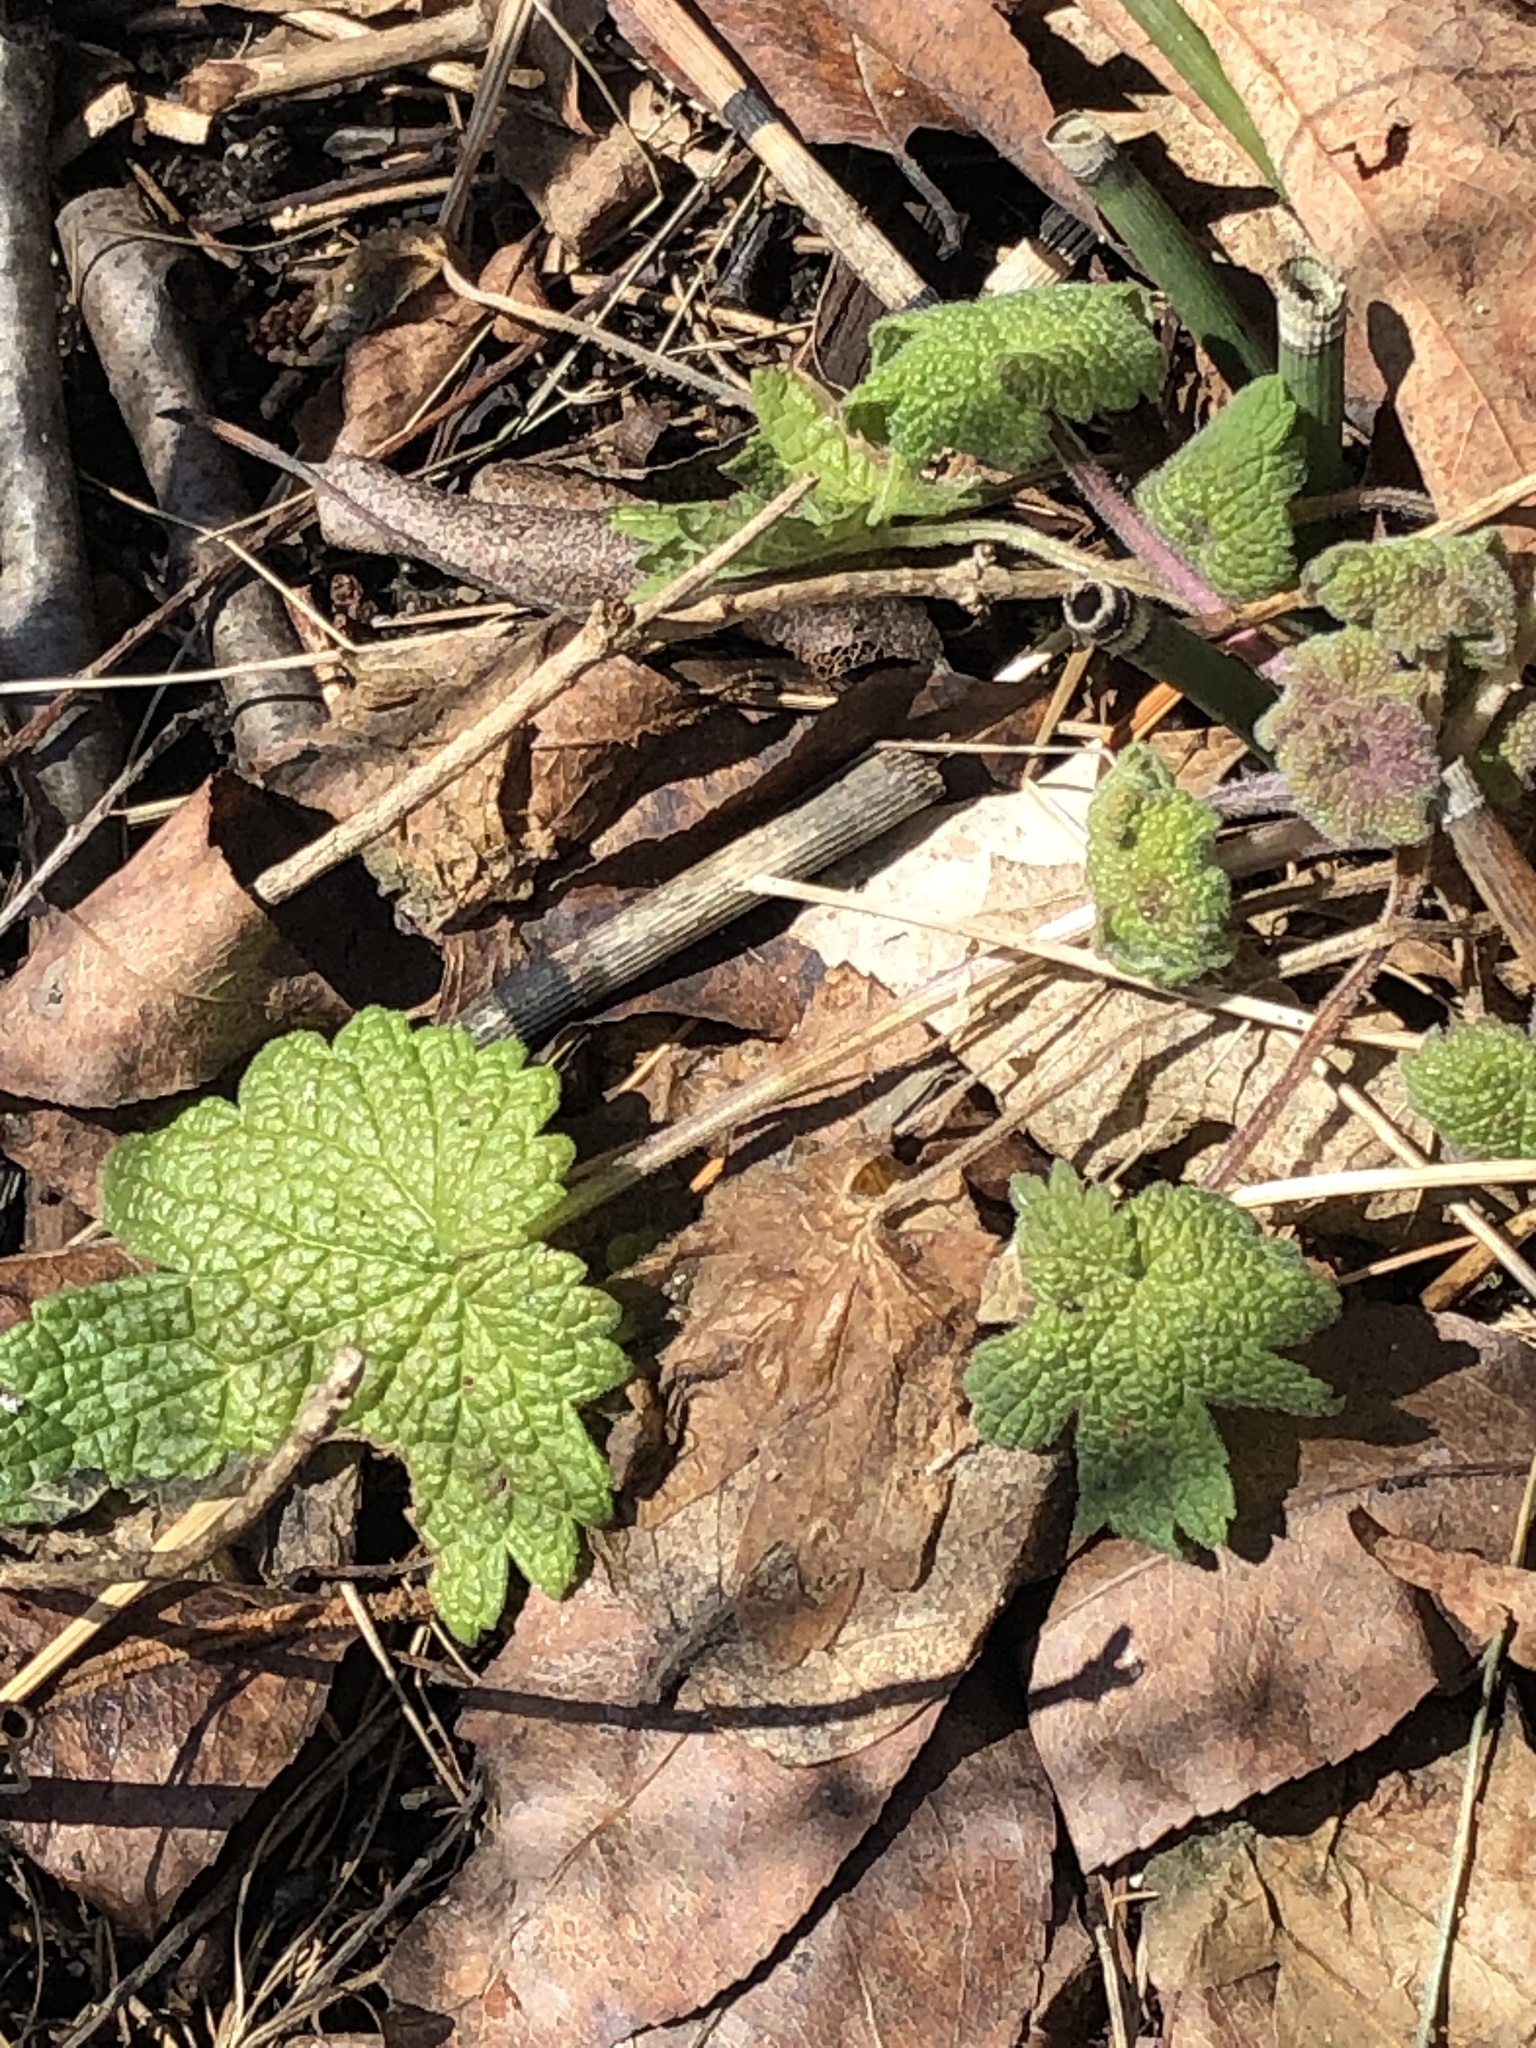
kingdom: Plantae
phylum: Tracheophyta
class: Magnoliopsida
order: Lamiales
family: Lamiaceae
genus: Leonurus
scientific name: Leonurus cardiaca
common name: Motherwort
